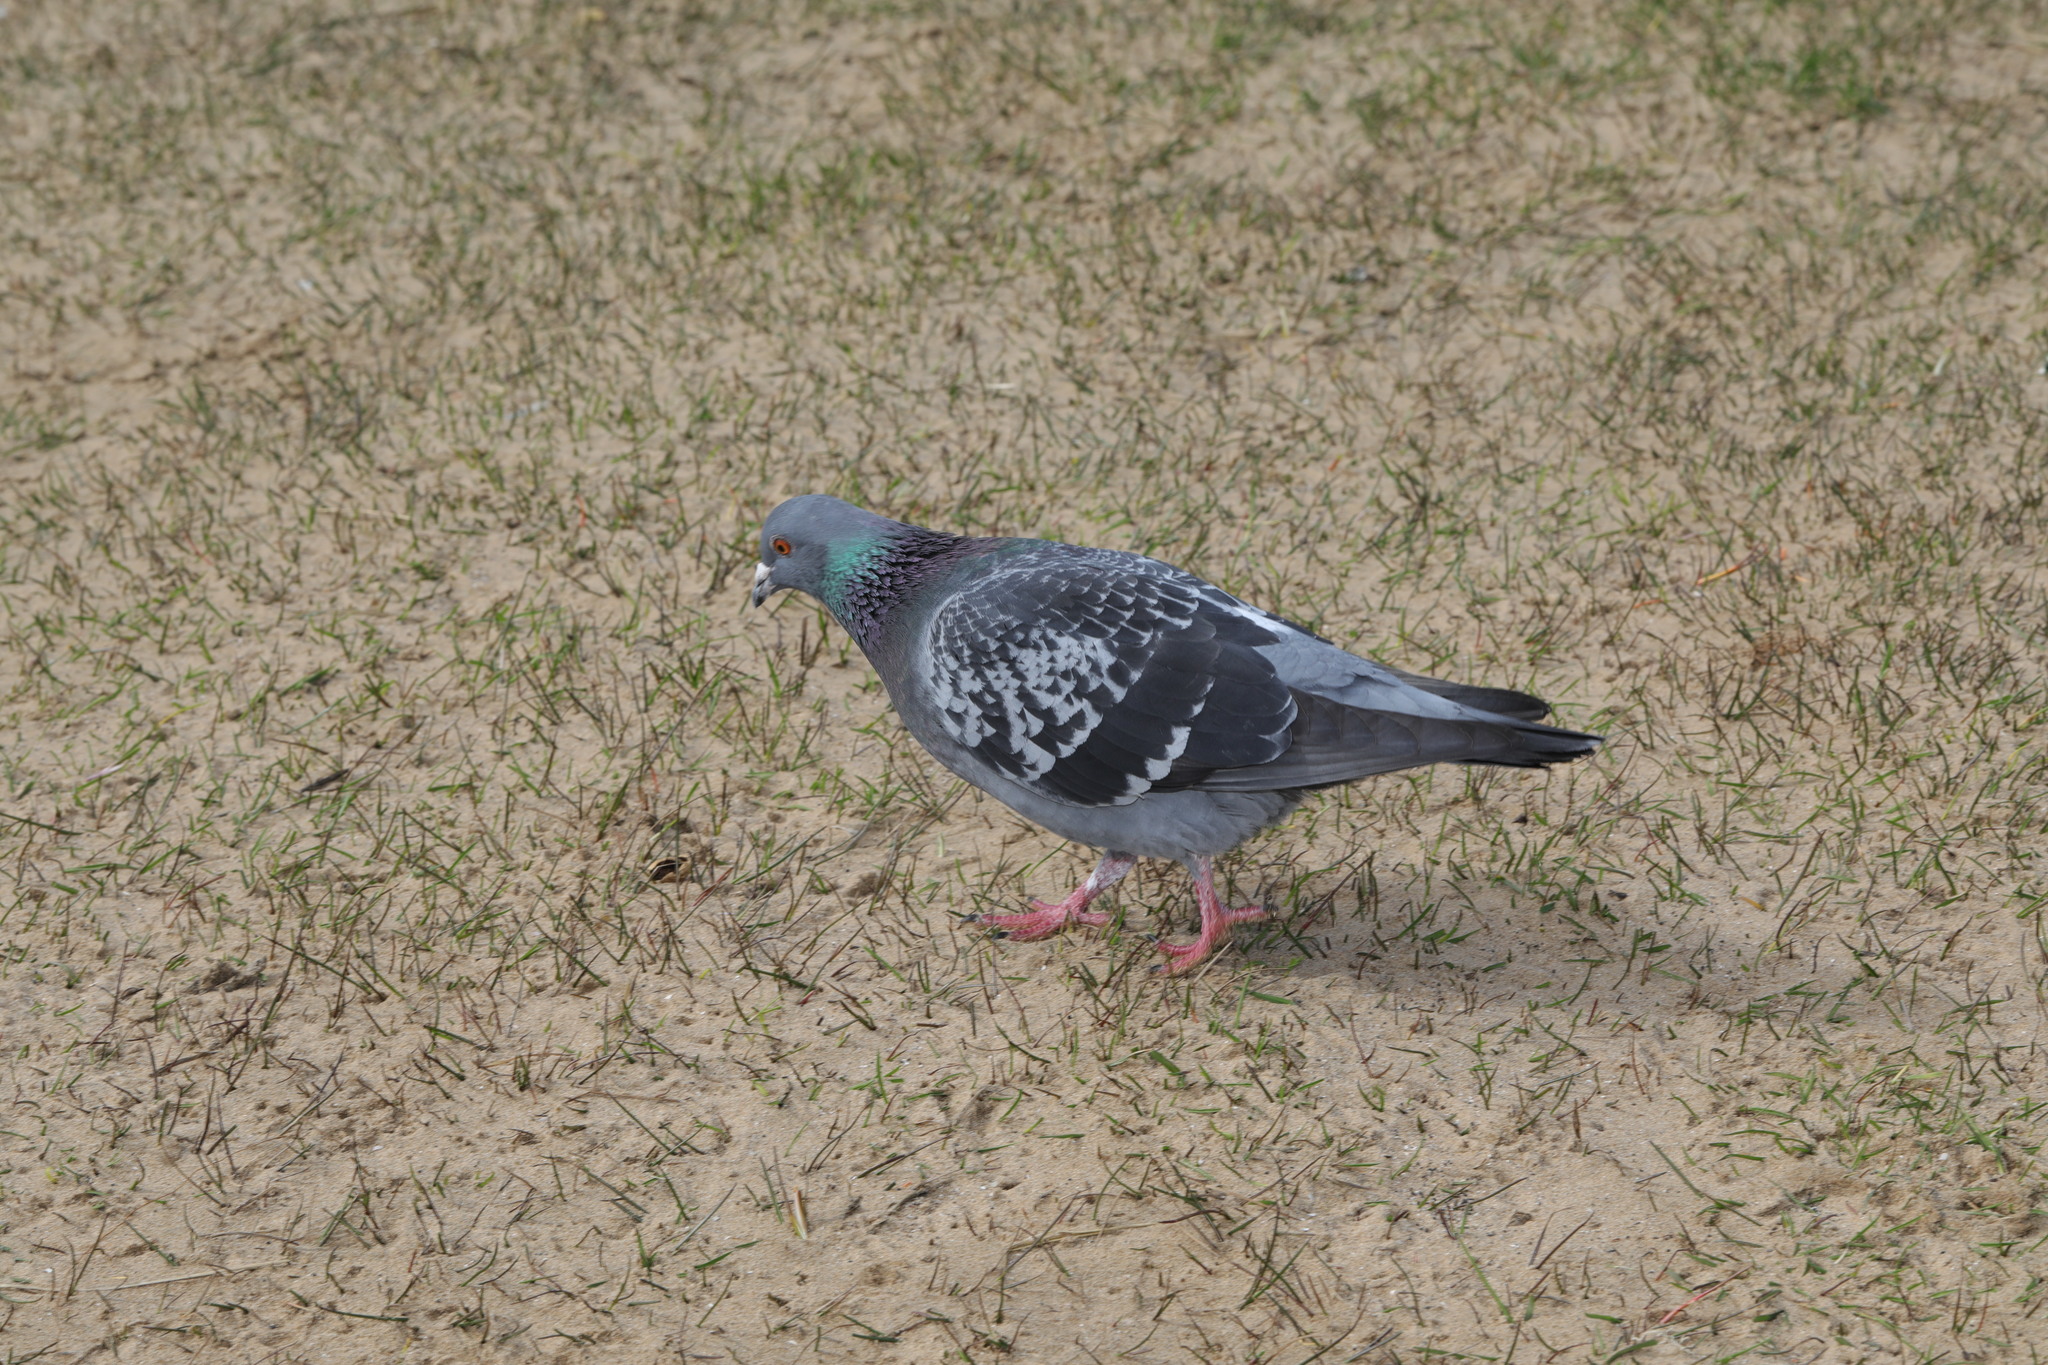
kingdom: Animalia
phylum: Chordata
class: Aves
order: Columbiformes
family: Columbidae
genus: Columba
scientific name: Columba livia
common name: Rock pigeon
